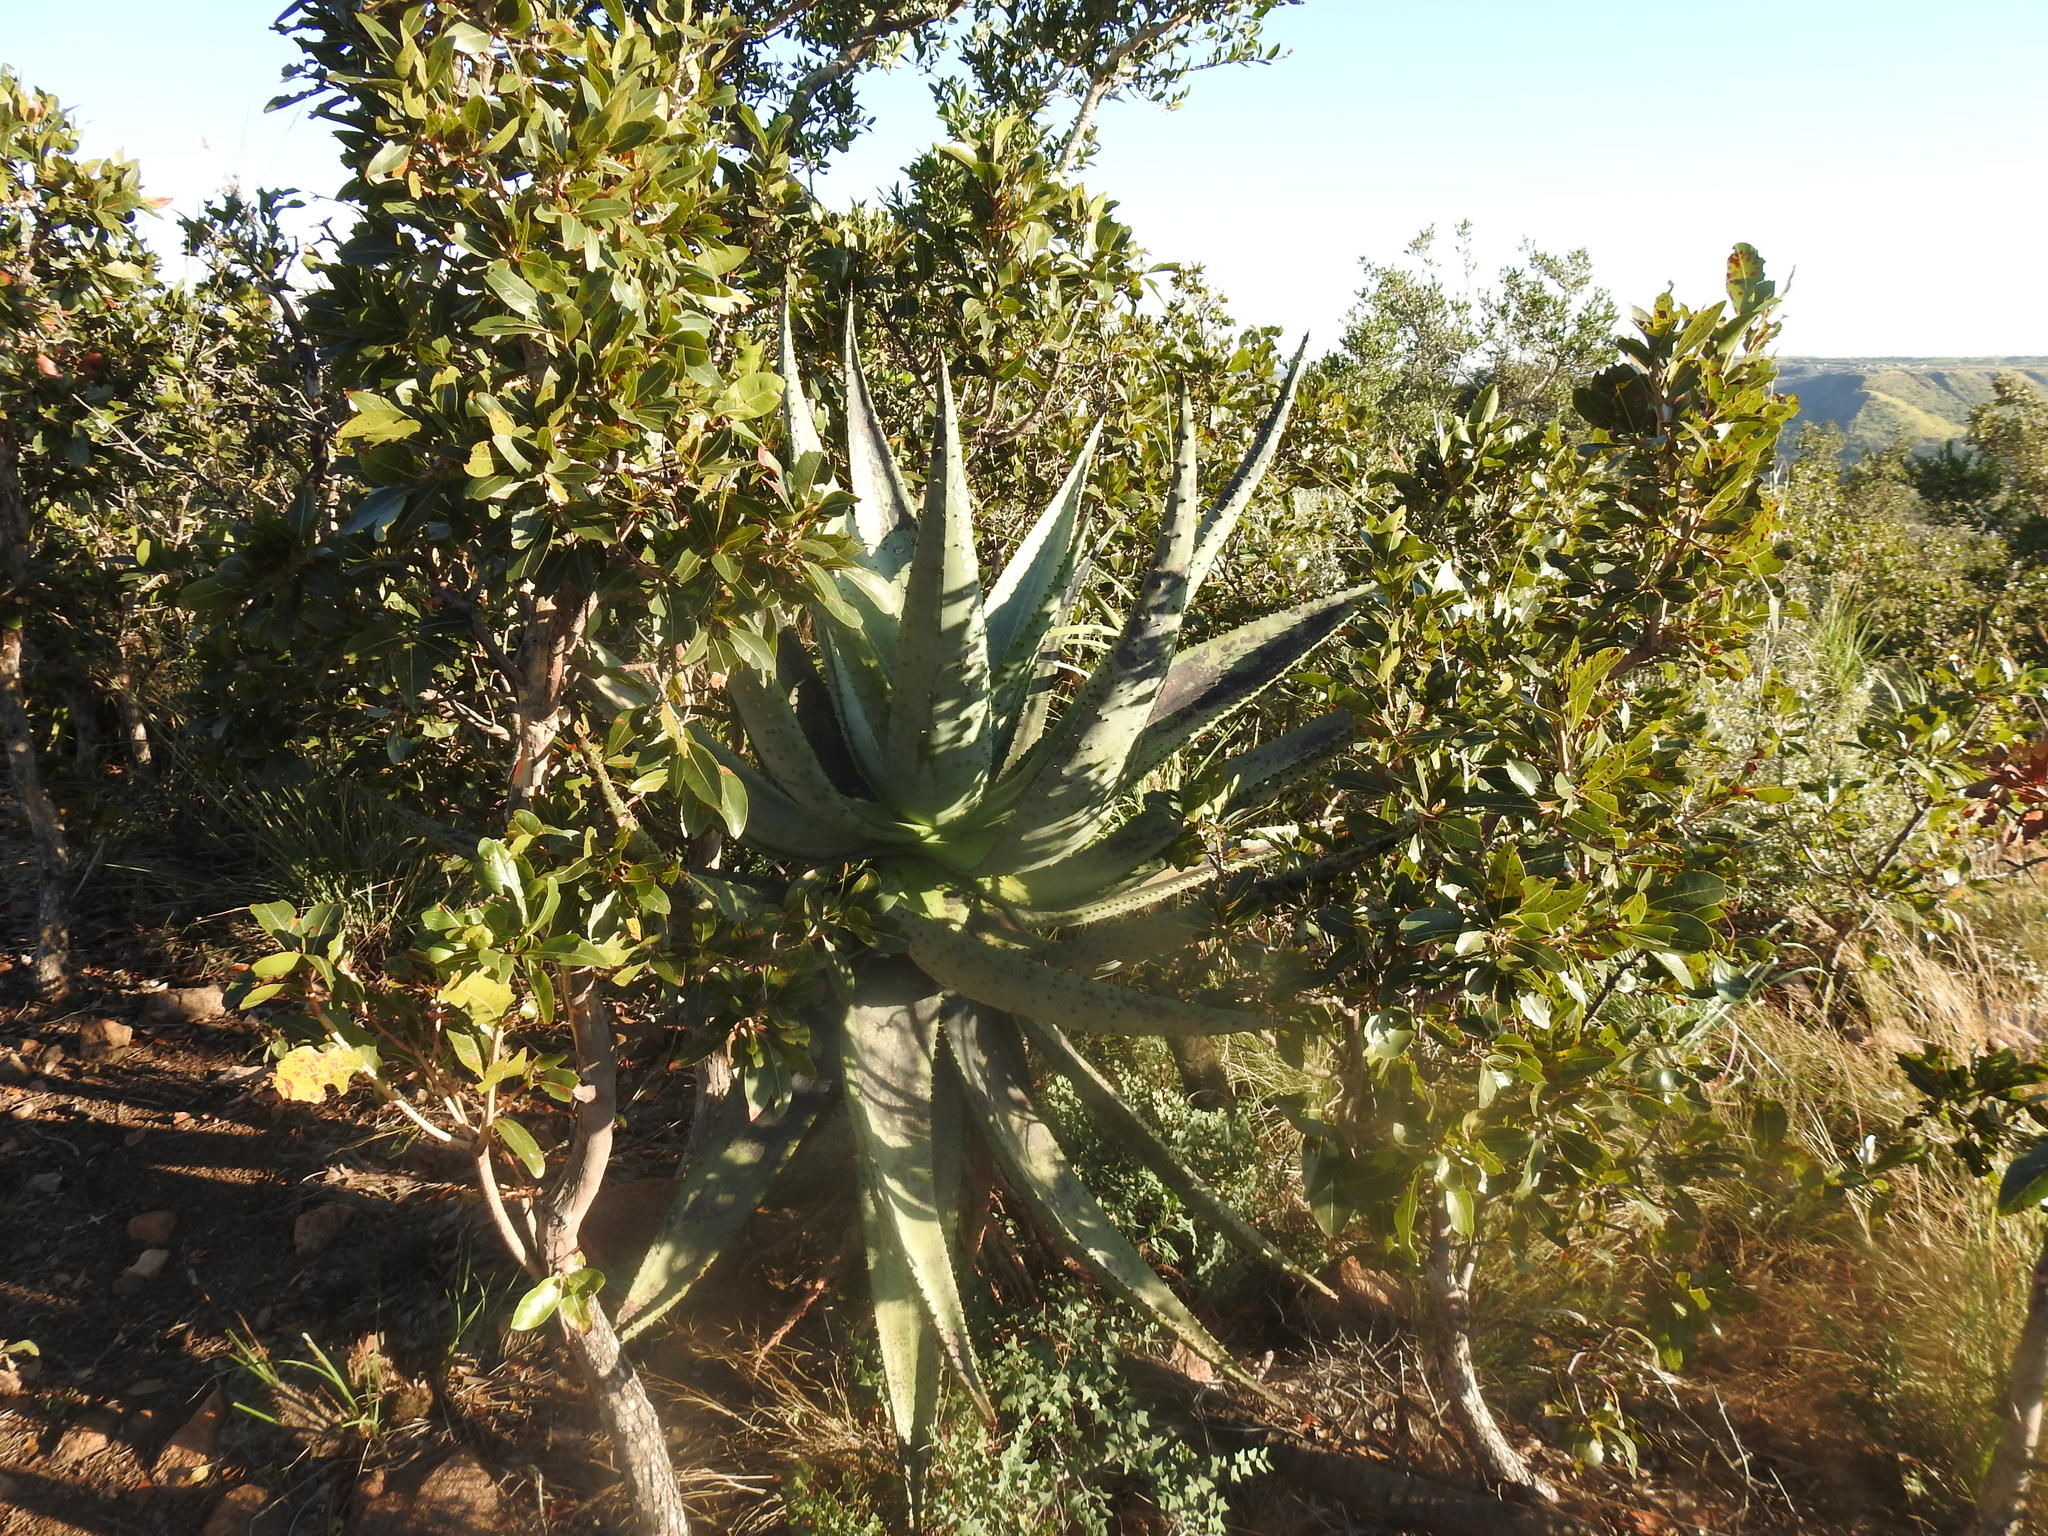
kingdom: Plantae
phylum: Tracheophyta
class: Liliopsida
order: Asparagales
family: Asphodelaceae
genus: Aloe
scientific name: Aloe marlothii
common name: Flat-flowered aloe
